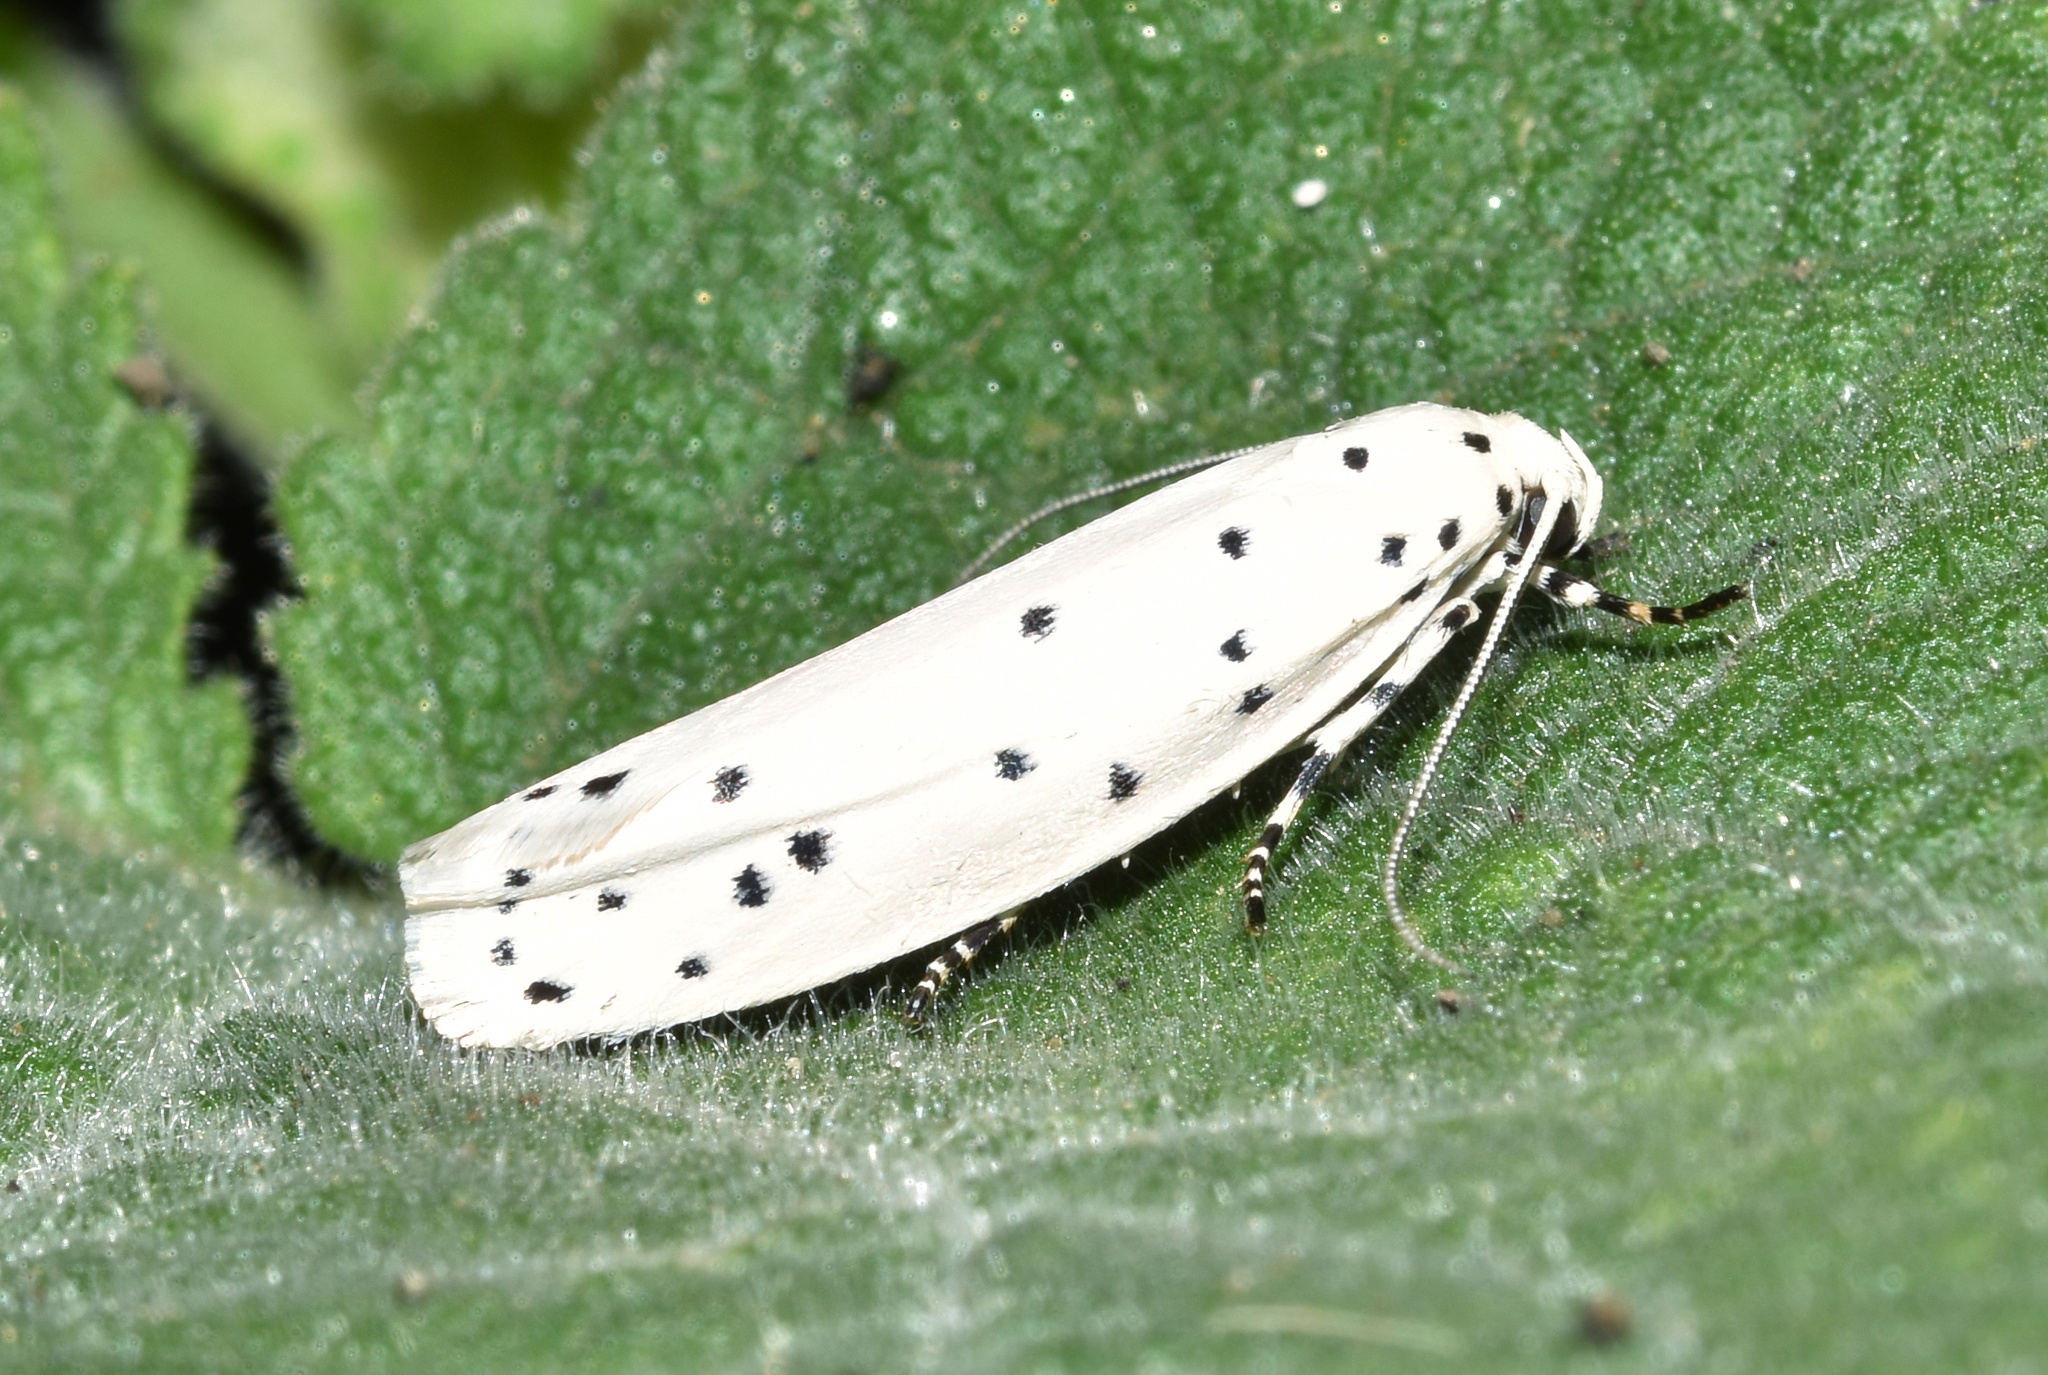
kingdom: Animalia
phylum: Arthropoda
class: Insecta
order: Lepidoptera
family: Ethmiidae
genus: Ethmia
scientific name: Ethmia coscineutis
